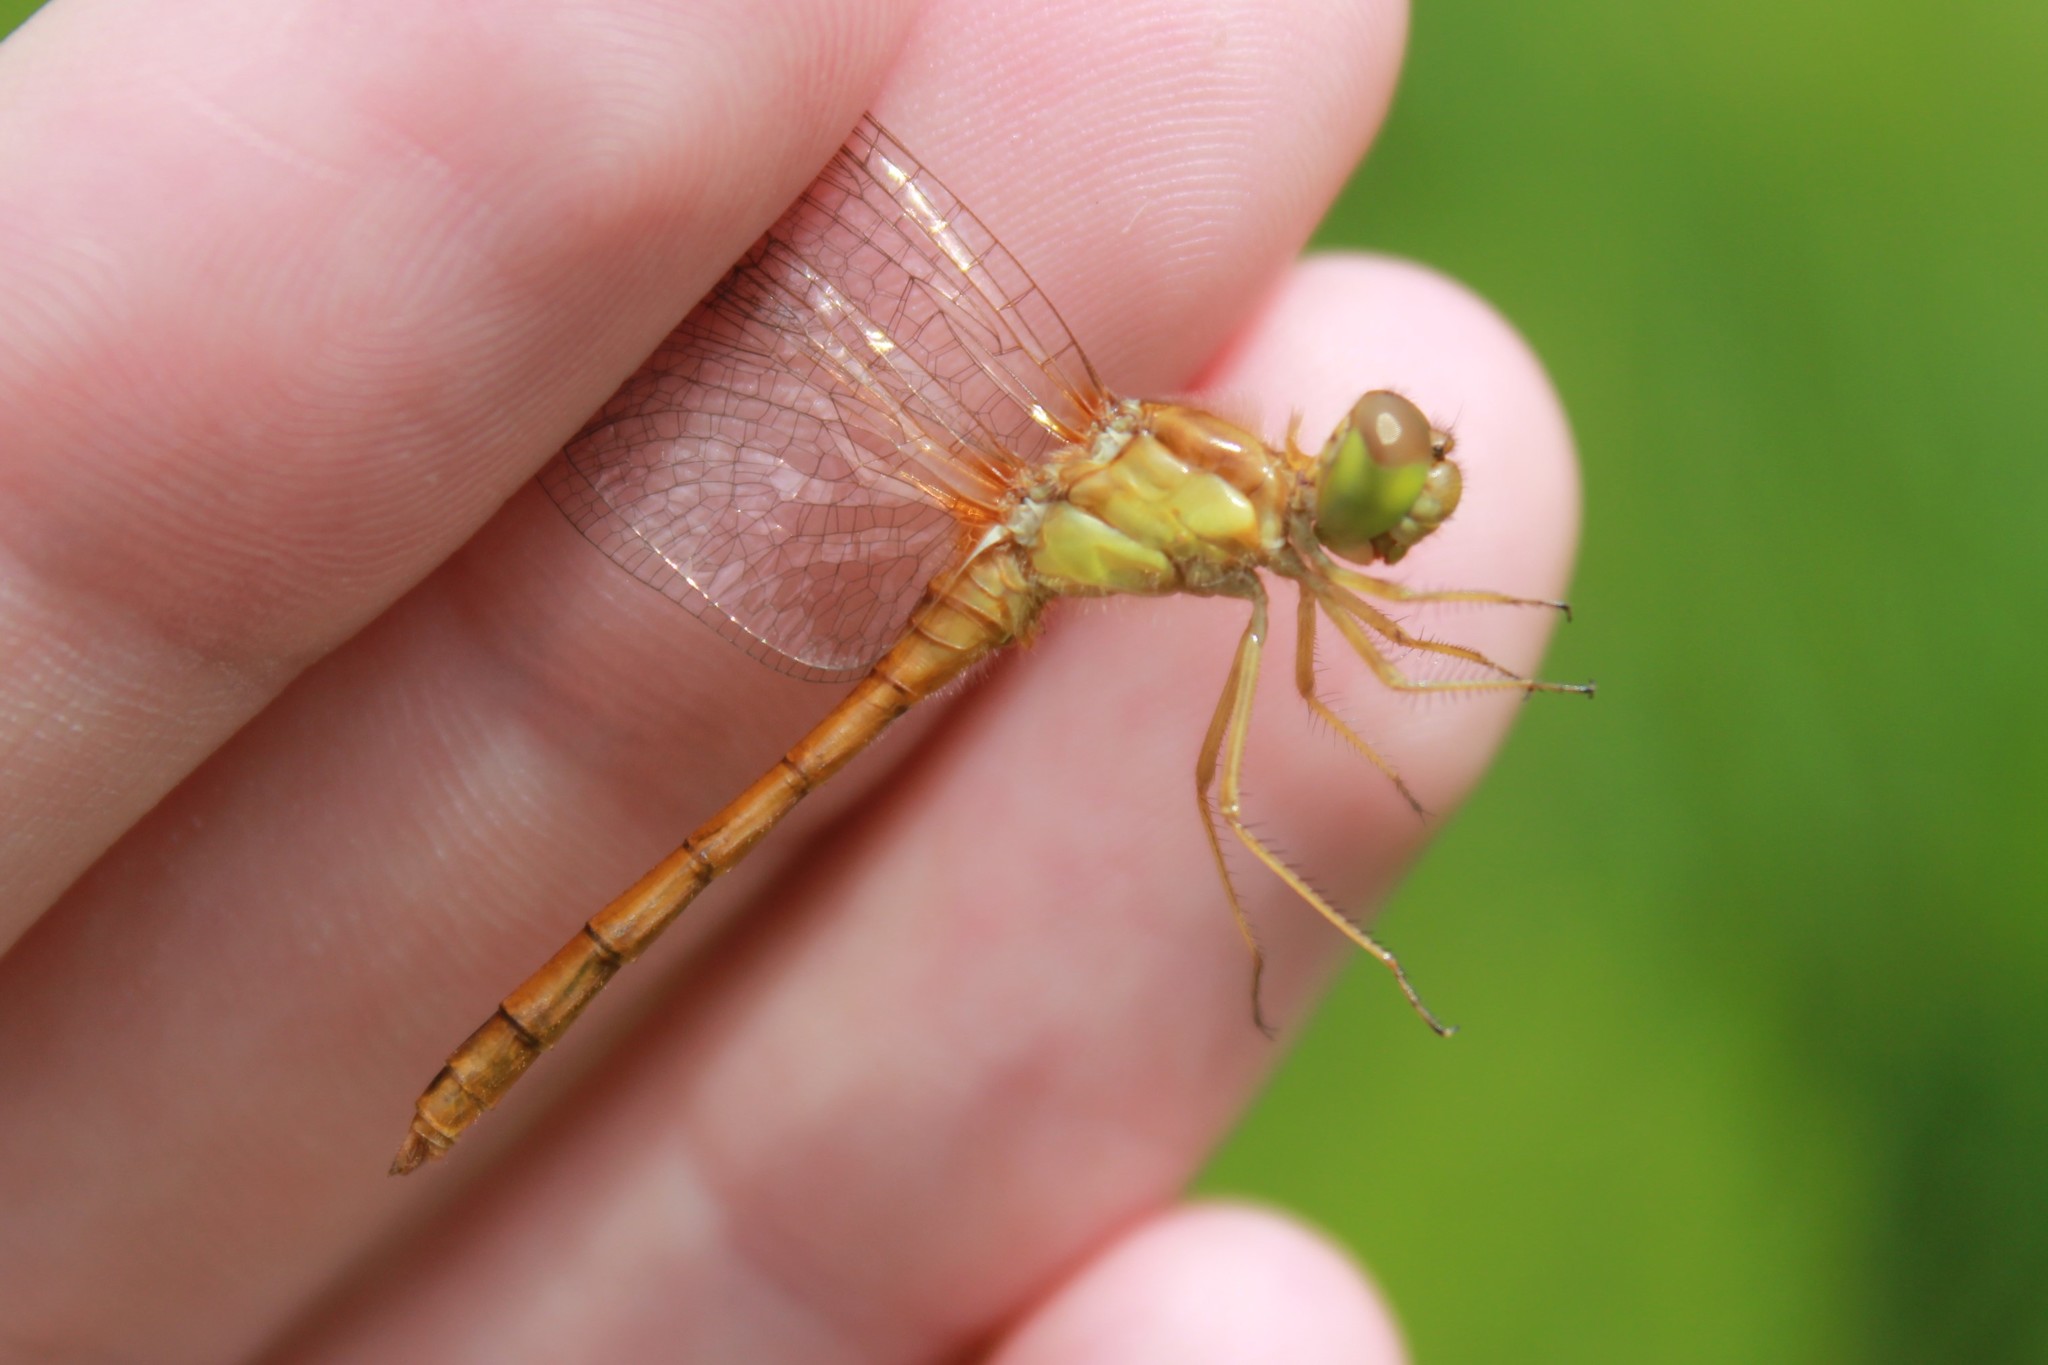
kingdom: Animalia
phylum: Arthropoda
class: Insecta
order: Odonata
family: Libellulidae
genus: Sympetrum
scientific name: Sympetrum vicinum
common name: Autumn meadowhawk
